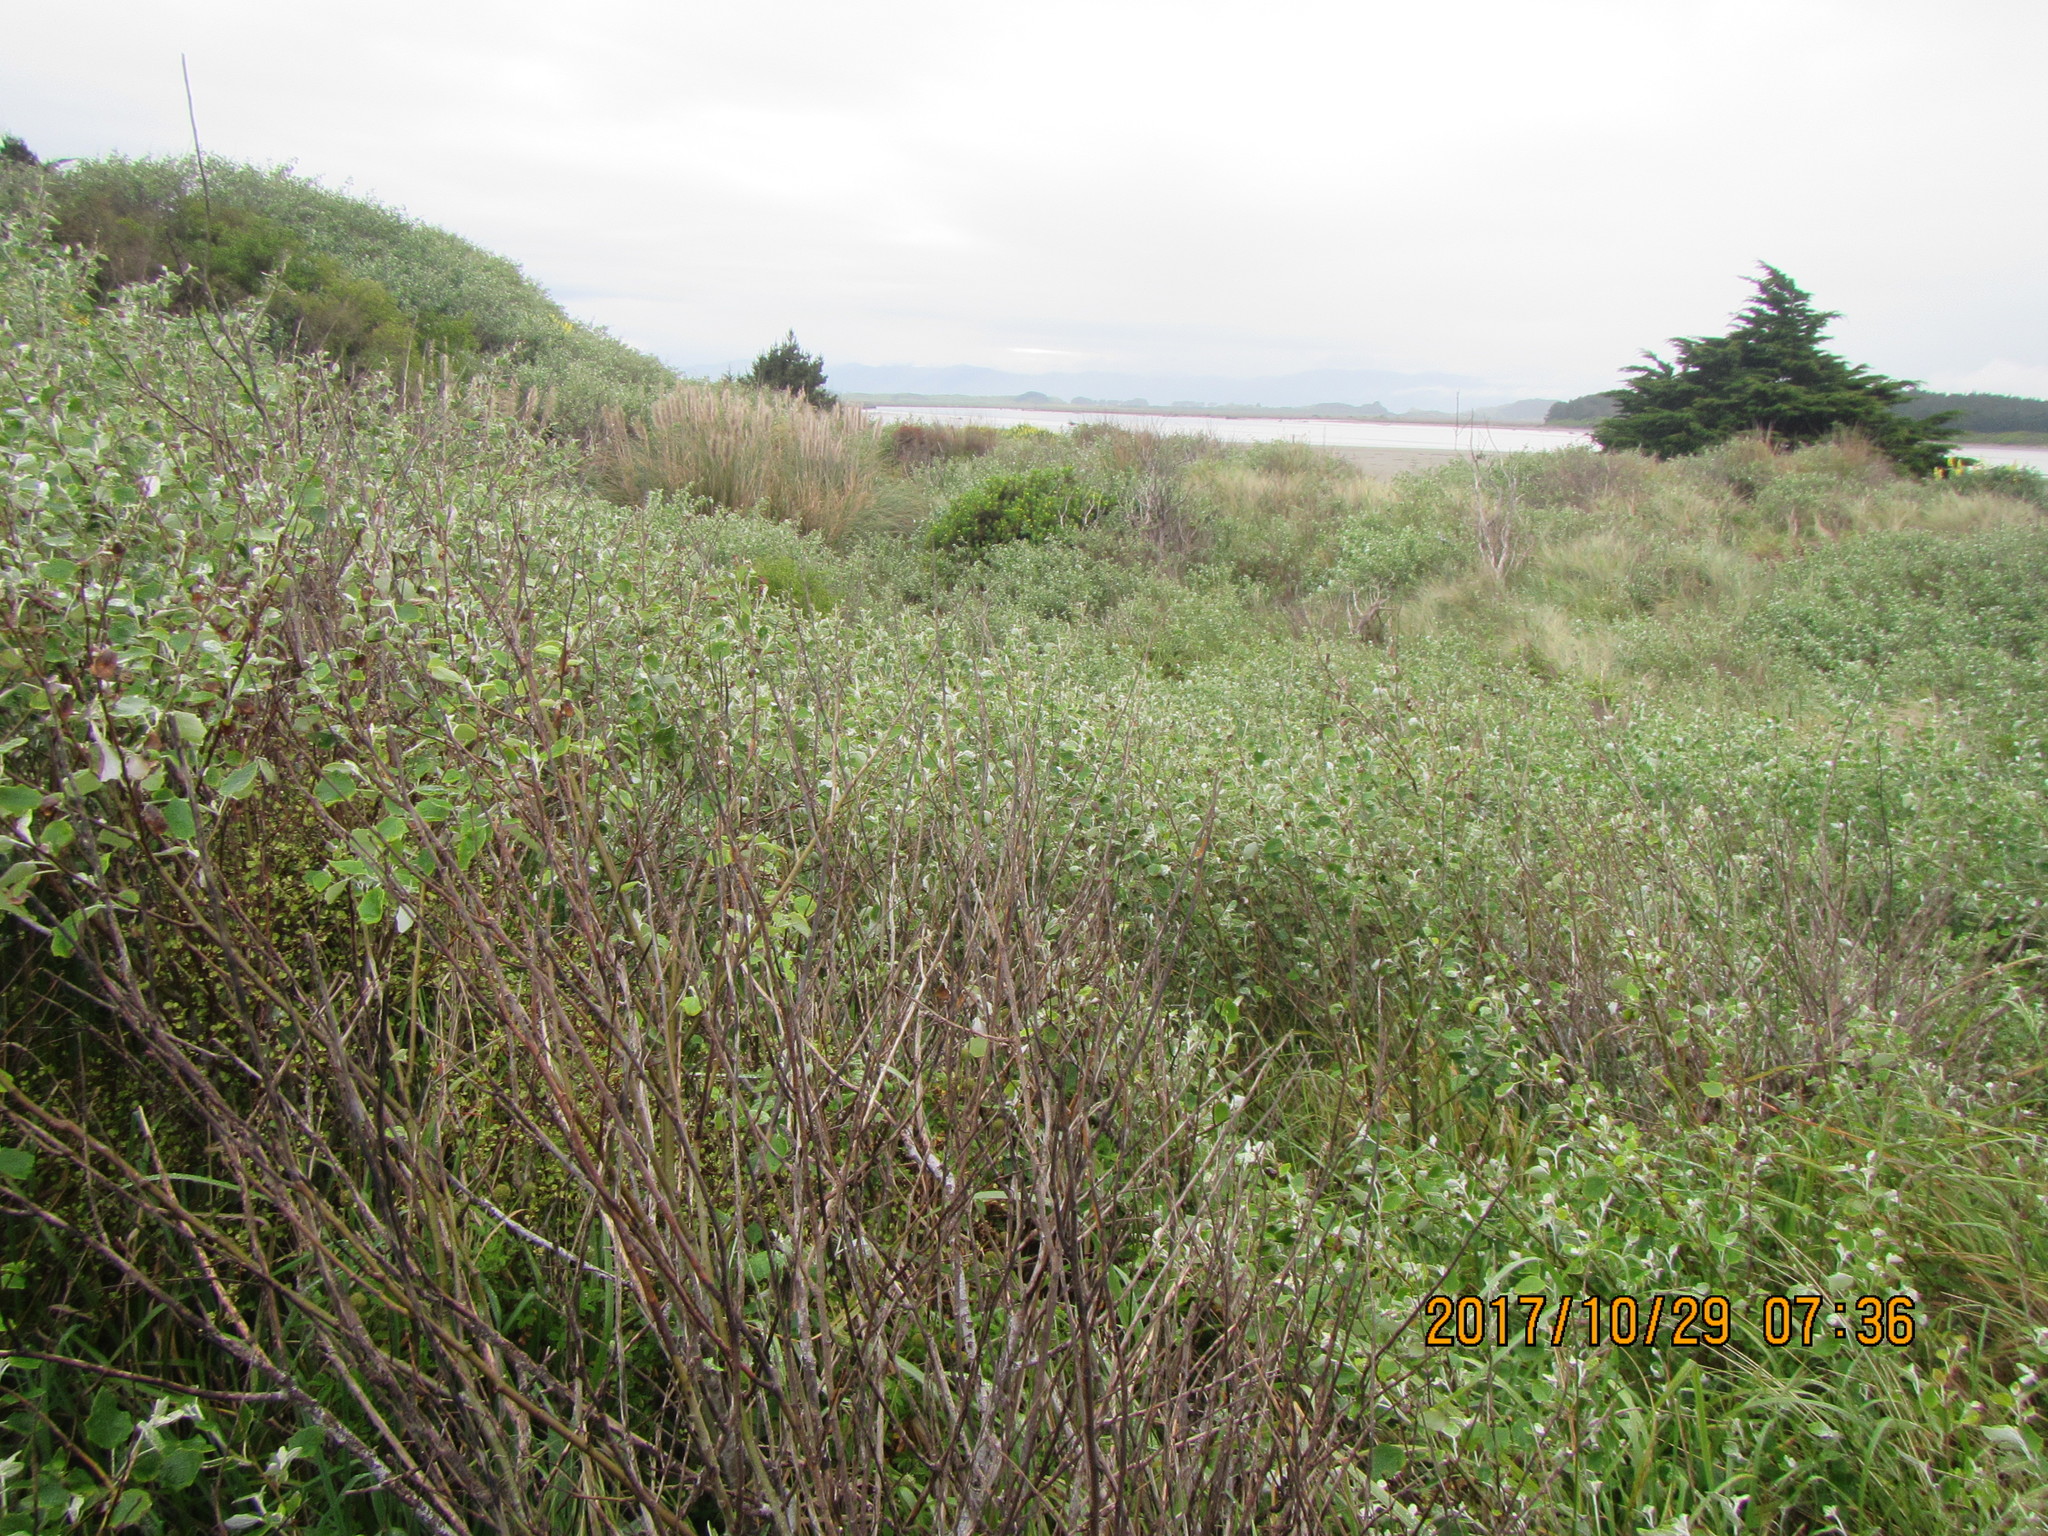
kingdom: Plantae
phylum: Tracheophyta
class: Magnoliopsida
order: Malpighiales
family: Salicaceae
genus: Populus
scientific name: Populus alba
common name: White poplar
